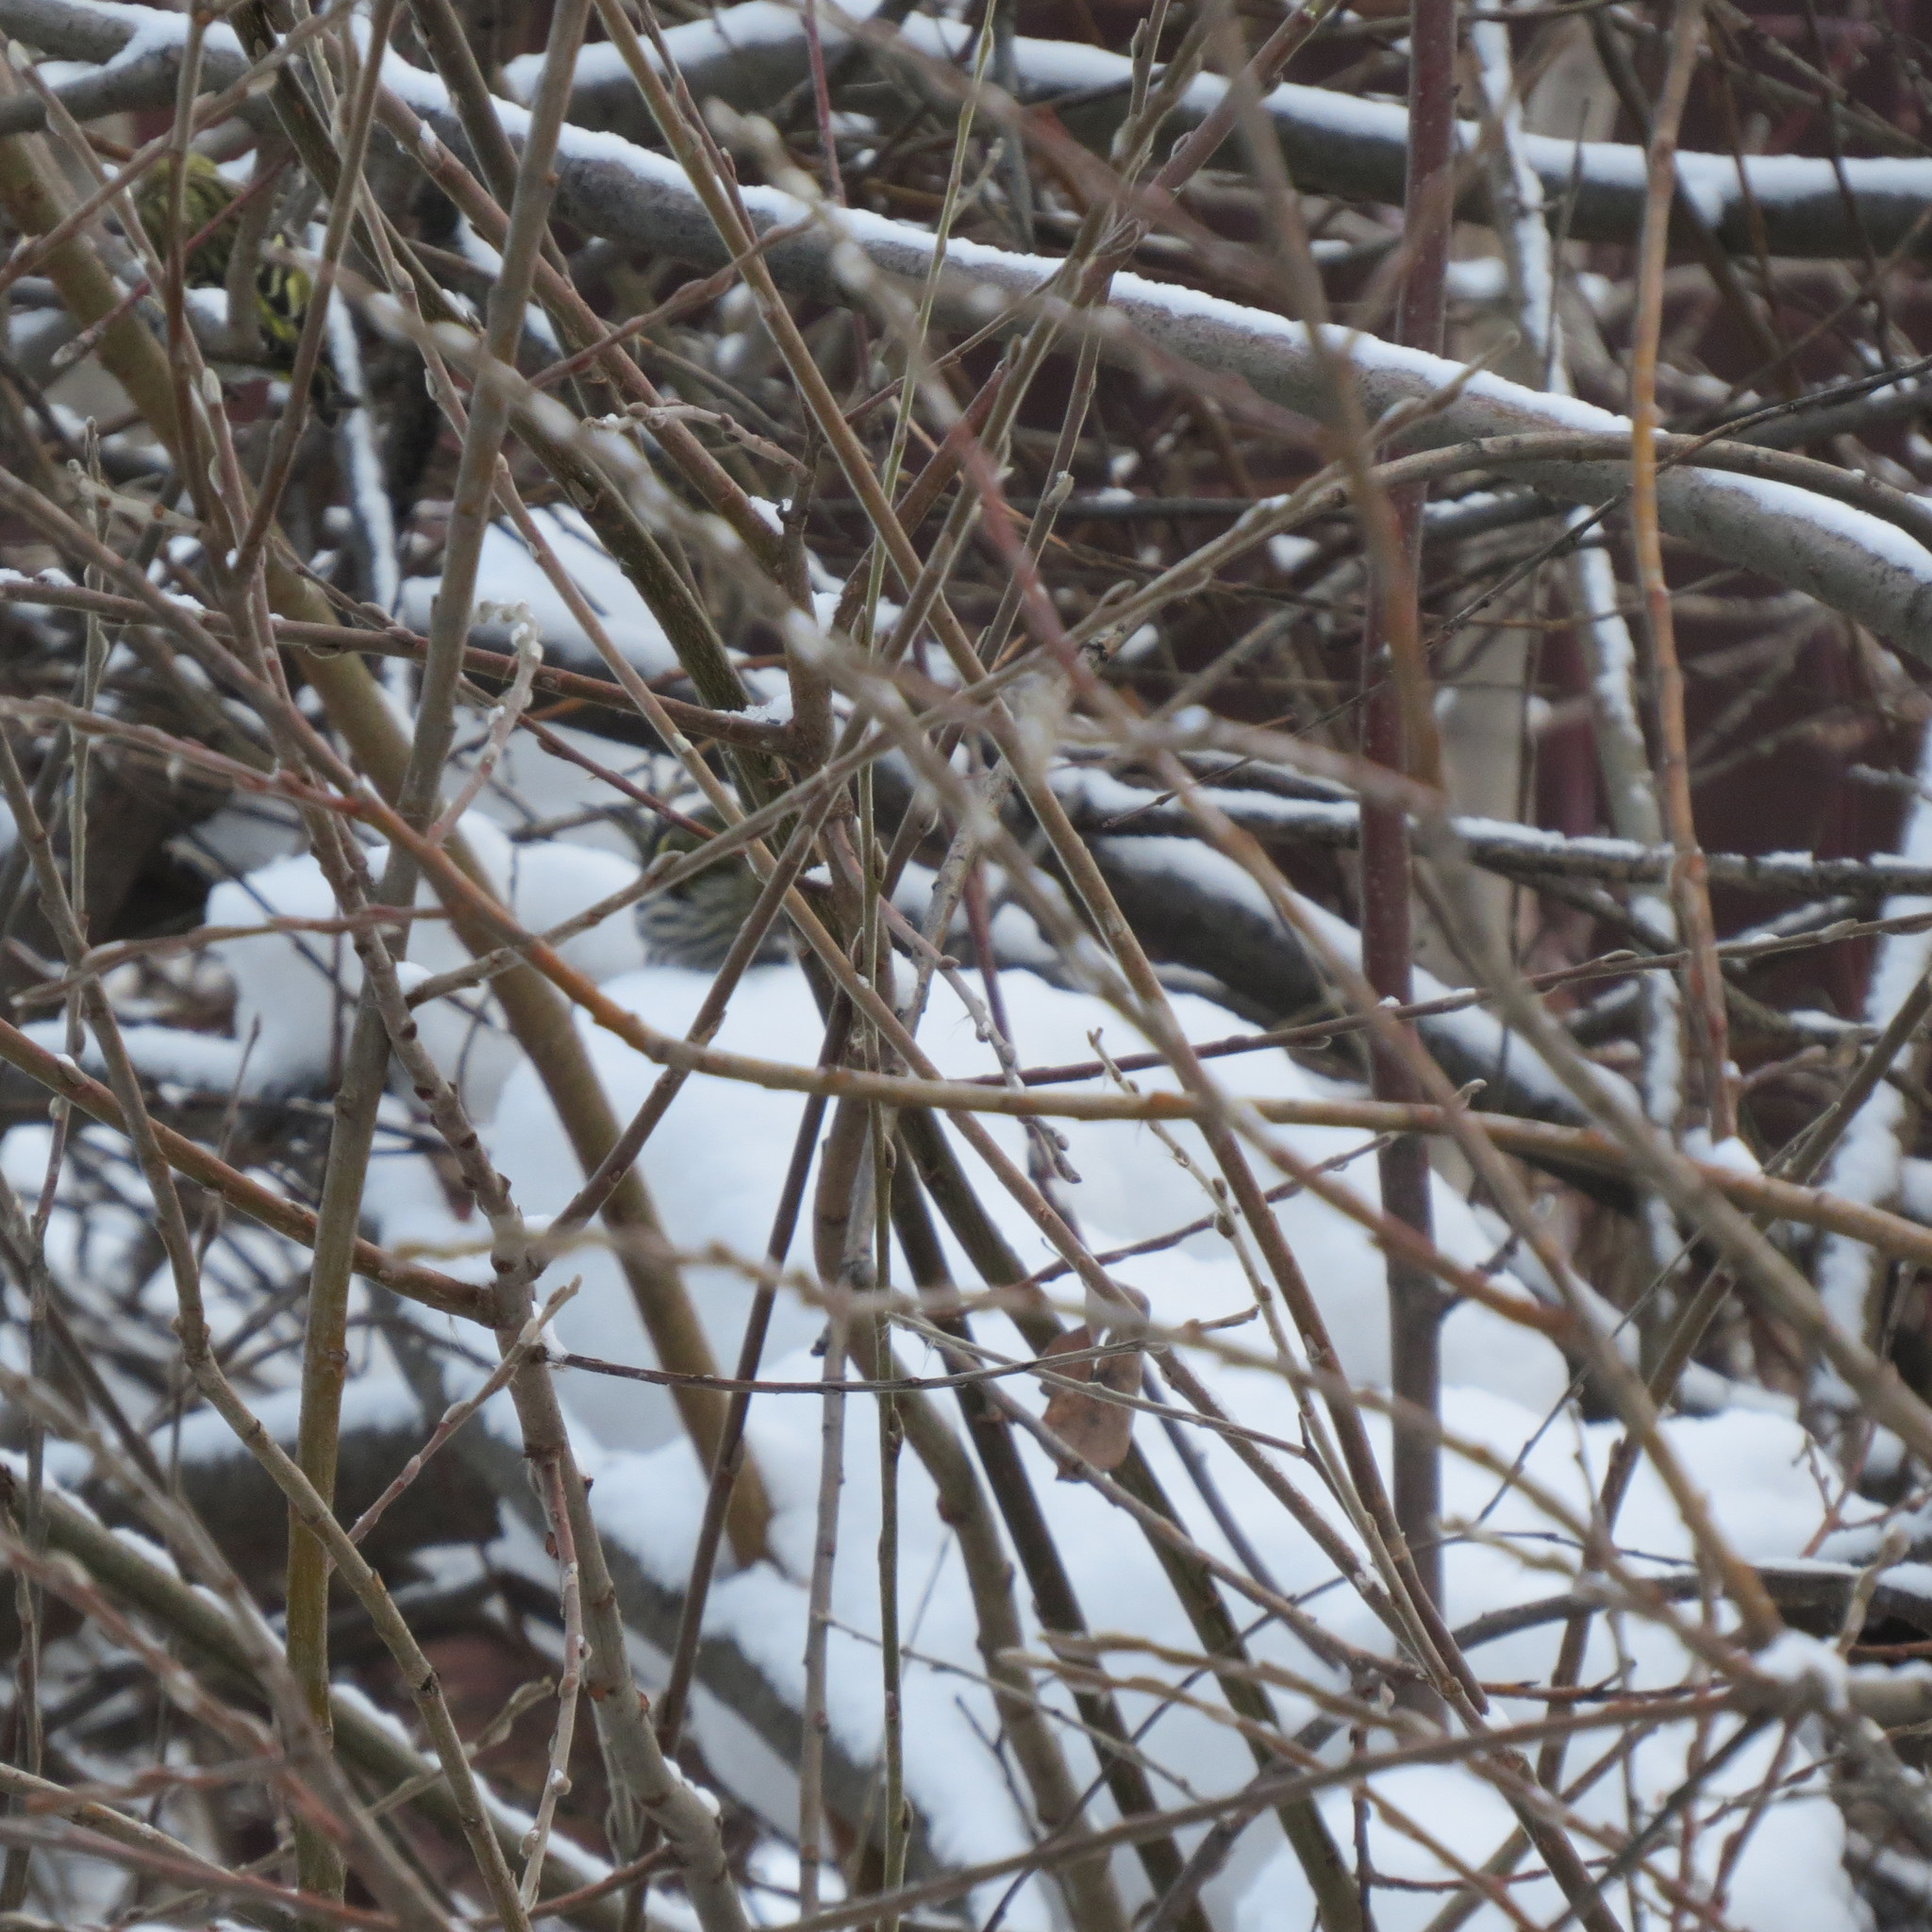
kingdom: Animalia
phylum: Chordata
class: Aves
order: Passeriformes
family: Fringillidae
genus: Spinus
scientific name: Spinus spinus
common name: Eurasian siskin
